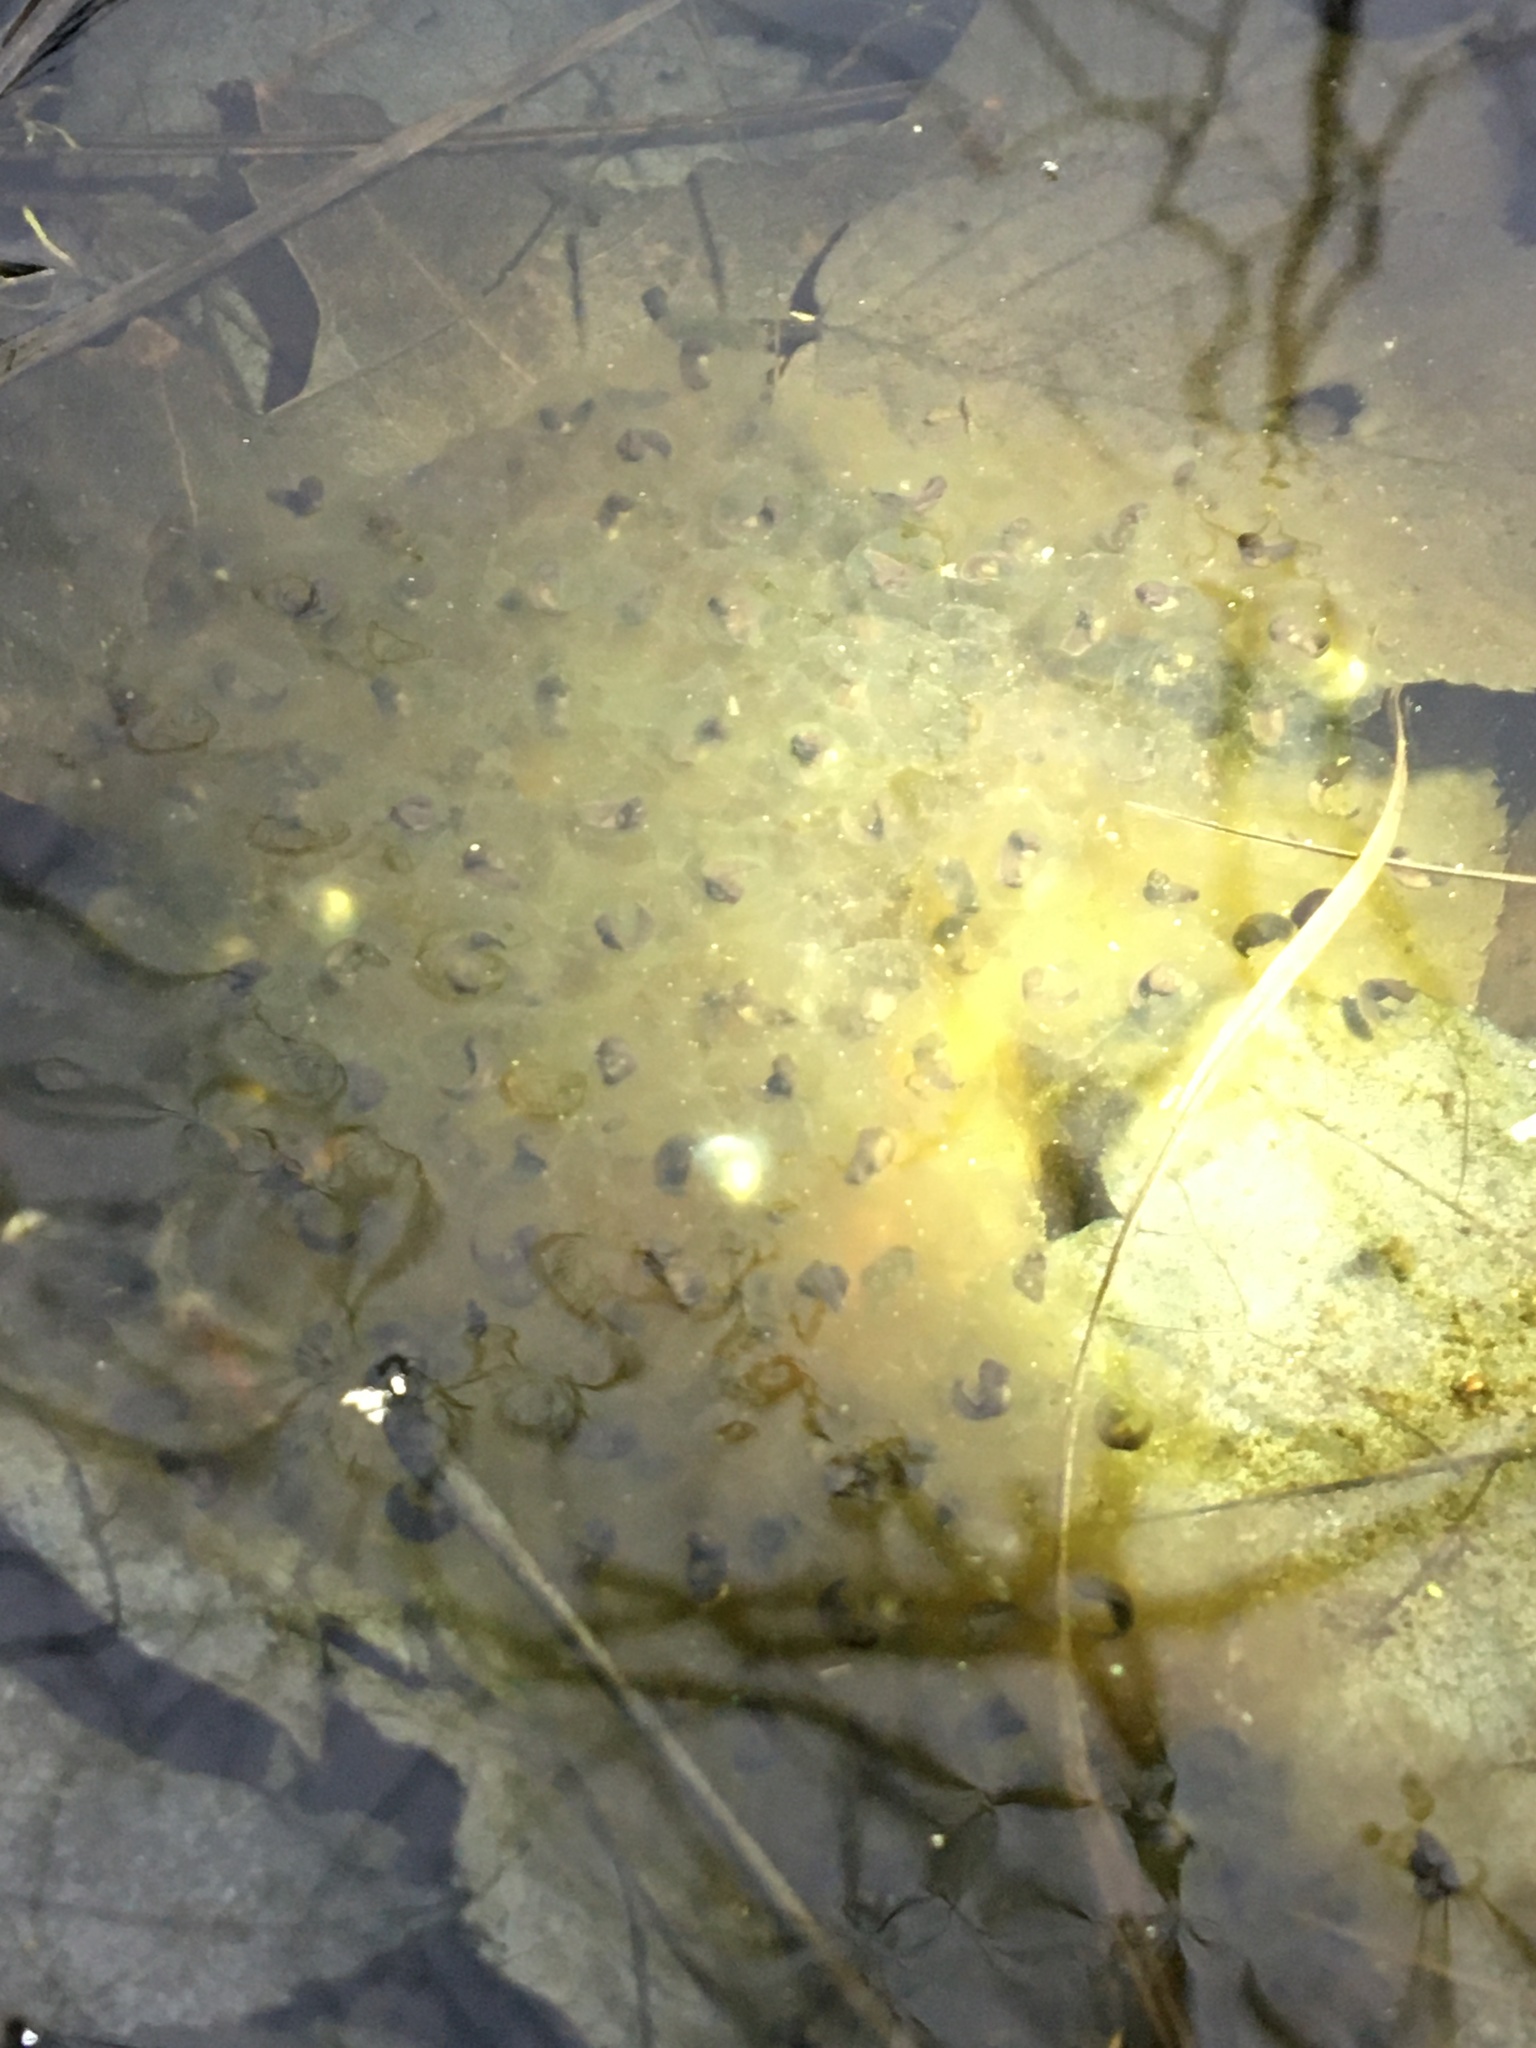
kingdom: Animalia
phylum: Chordata
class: Amphibia
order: Anura
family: Ranidae
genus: Lithobates
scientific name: Lithobates sylvaticus
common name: Wood frog
